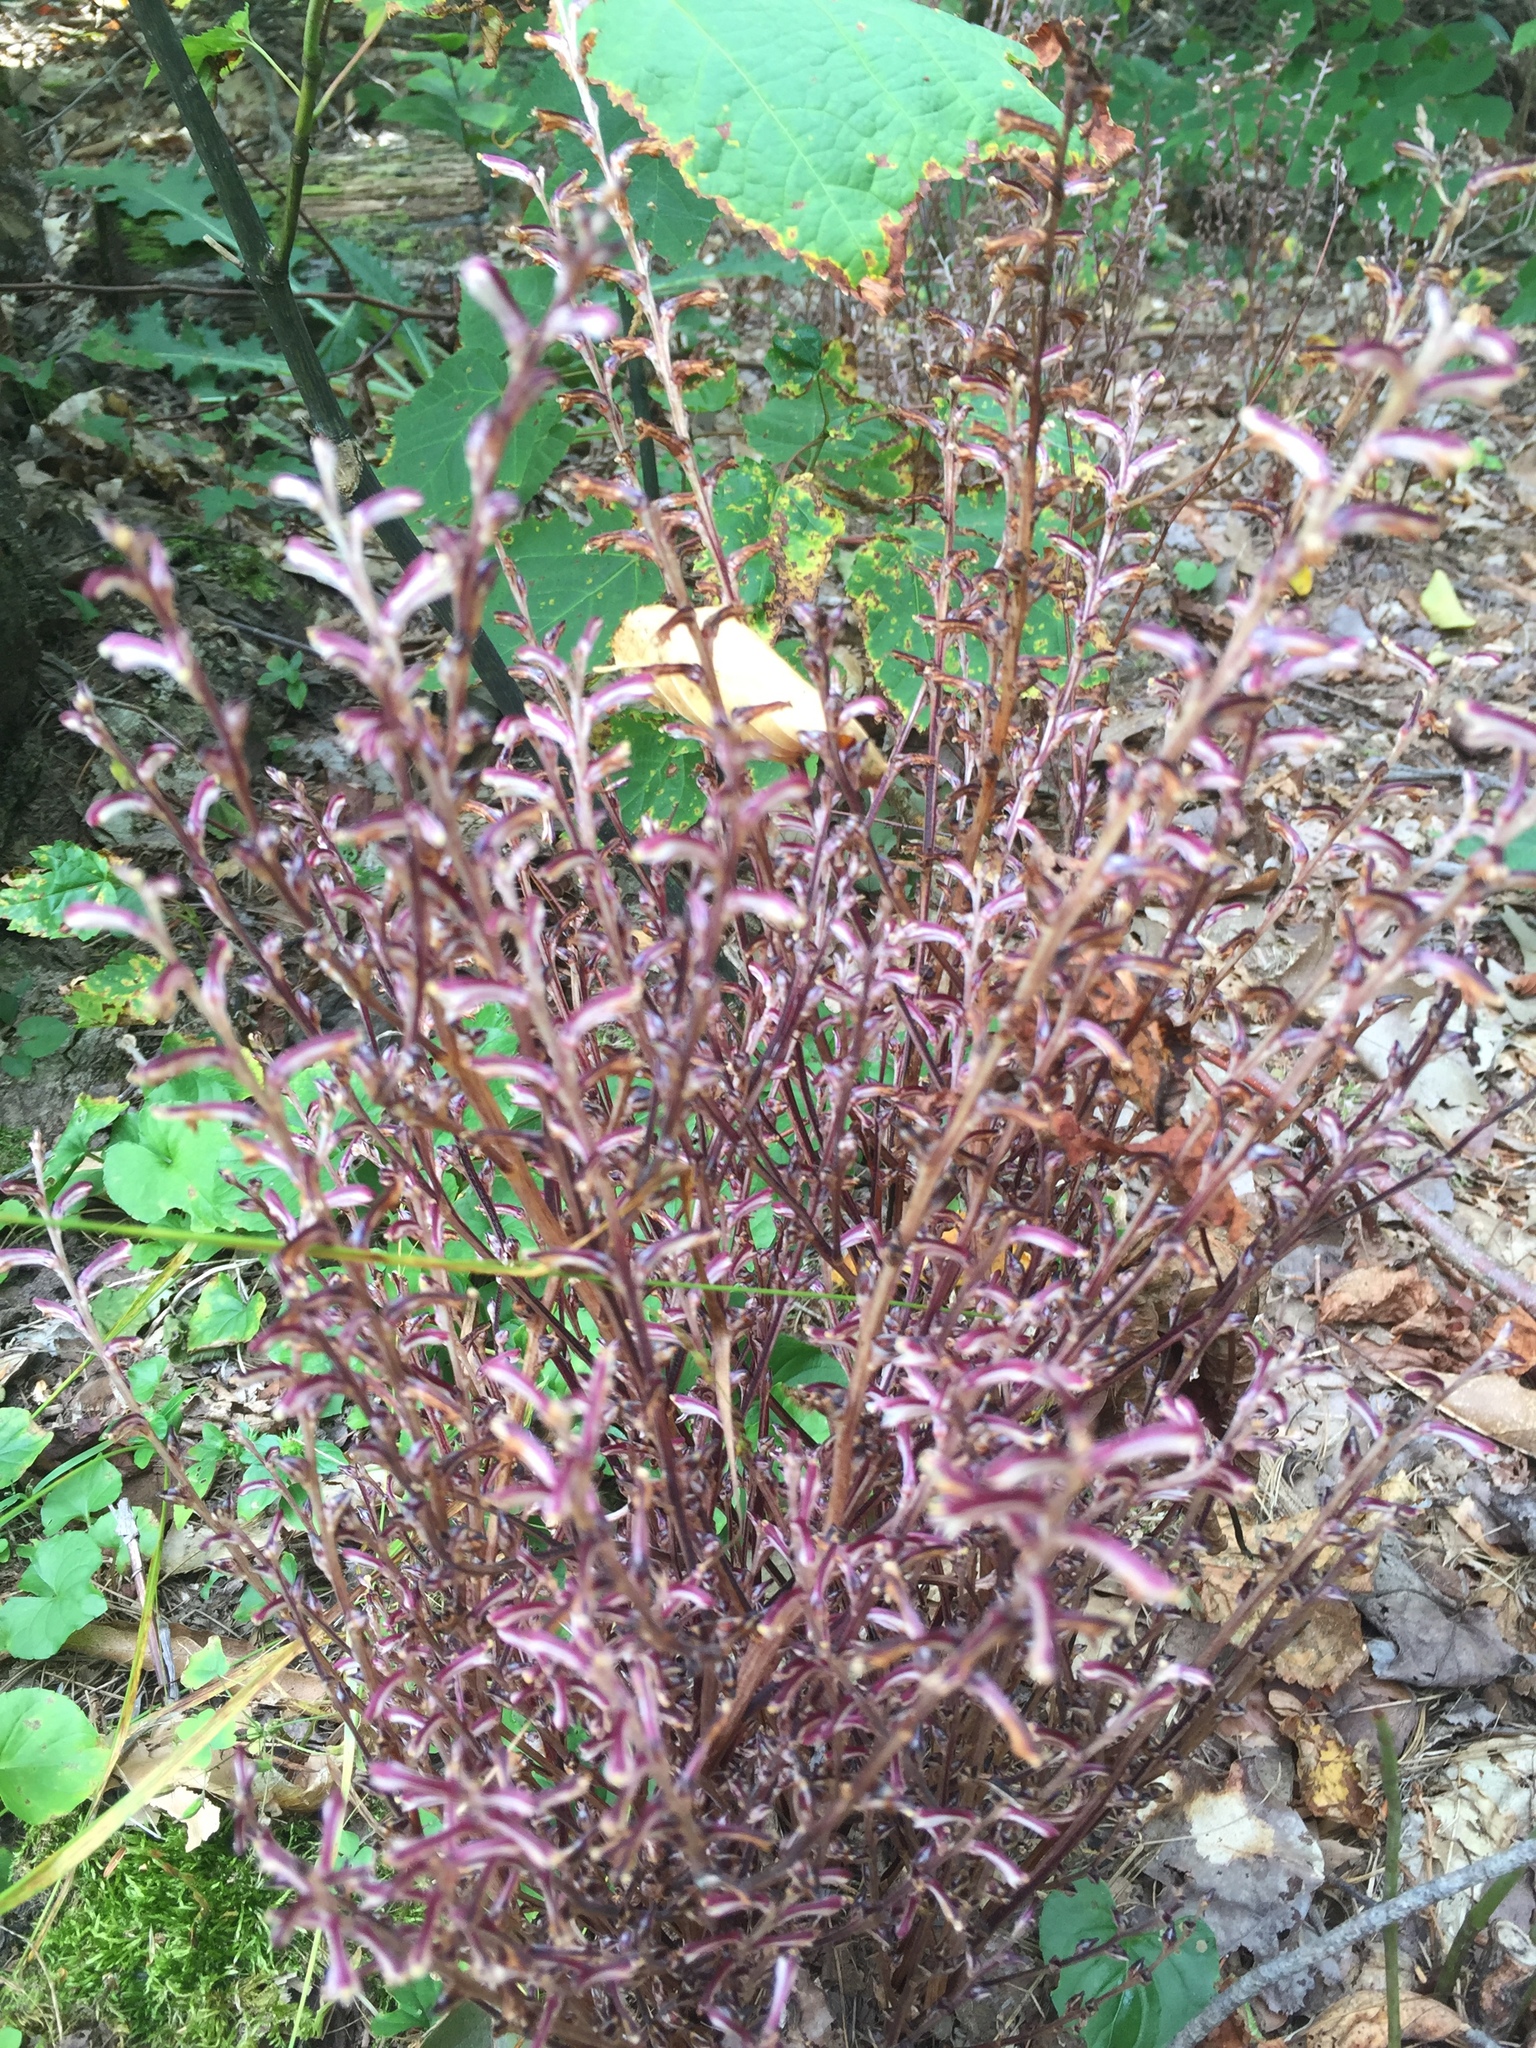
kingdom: Plantae
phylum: Tracheophyta
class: Magnoliopsida
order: Lamiales
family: Orobanchaceae
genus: Epifagus
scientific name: Epifagus virginiana
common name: Beechdrops
